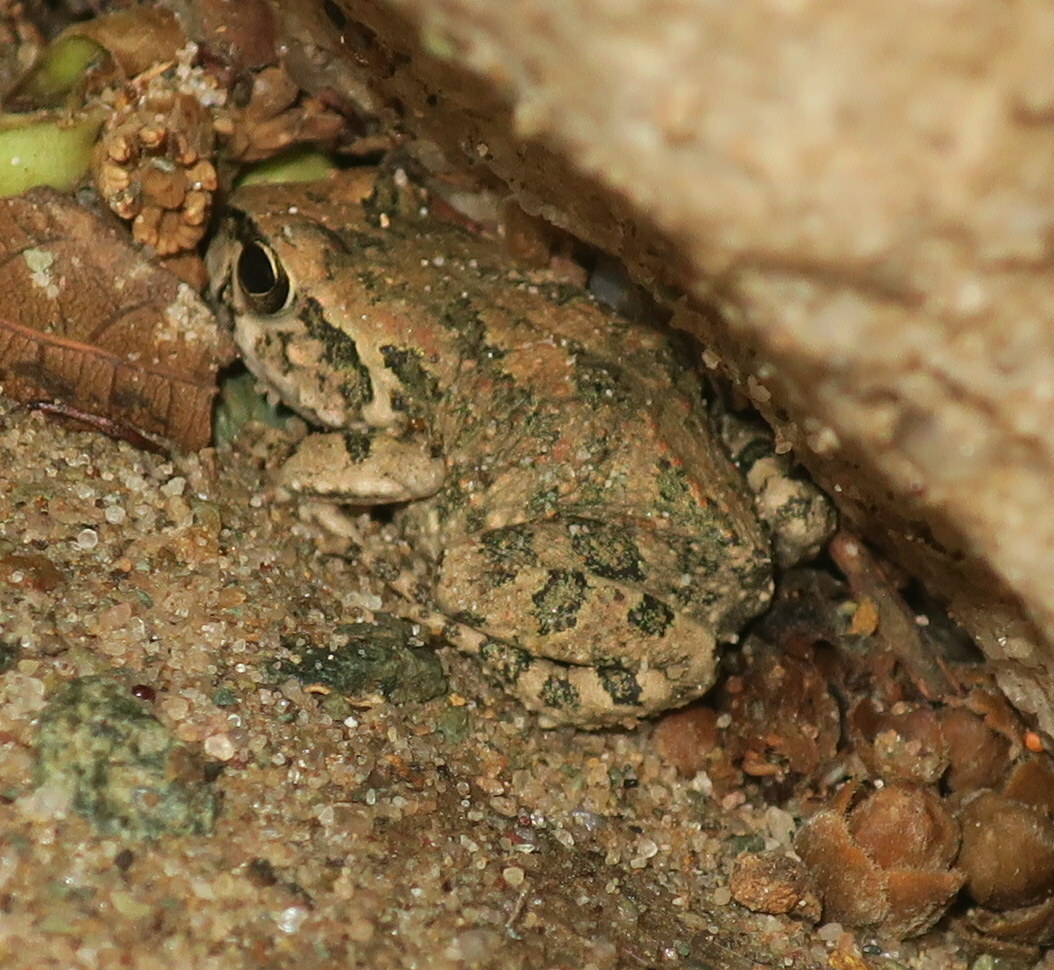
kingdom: Animalia
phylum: Chordata
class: Amphibia
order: Anura
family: Bufonidae
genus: Sclerophrys
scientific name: Sclerophrys arabica
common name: Arabian toad
